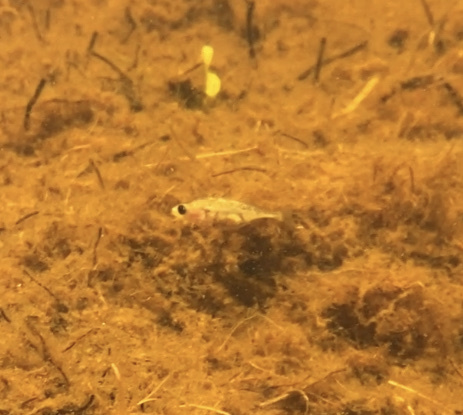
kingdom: Animalia
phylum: Chordata
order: Gasterosteiformes
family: Gasterosteidae
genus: Gasterosteus
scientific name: Gasterosteus aculeatus
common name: Three-spined stickleback
